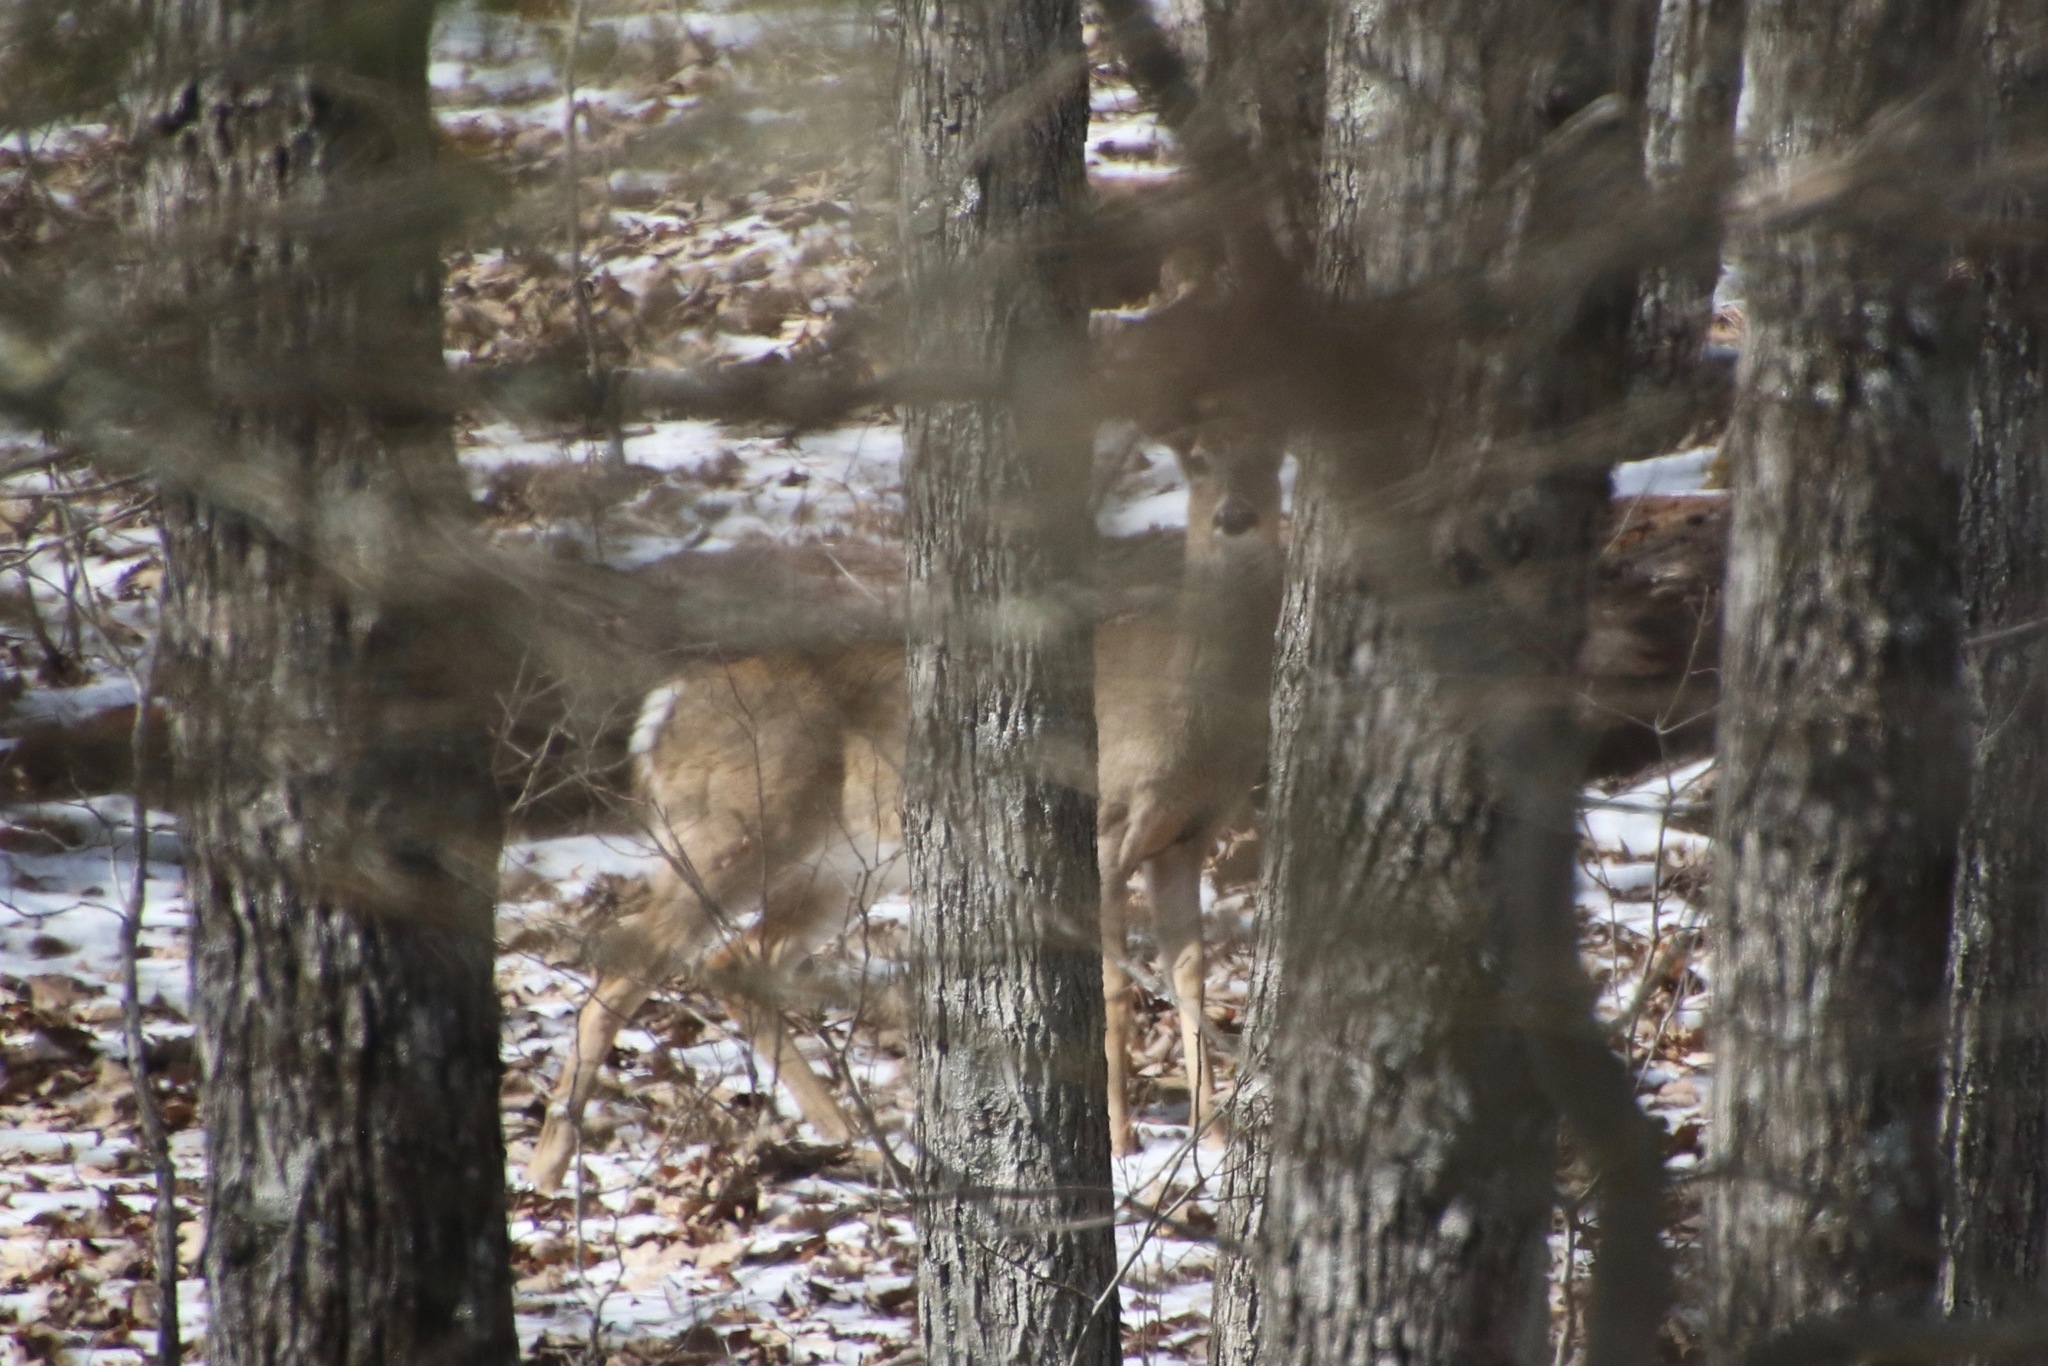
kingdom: Animalia
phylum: Chordata
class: Mammalia
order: Artiodactyla
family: Cervidae
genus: Odocoileus
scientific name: Odocoileus virginianus
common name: White-tailed deer
